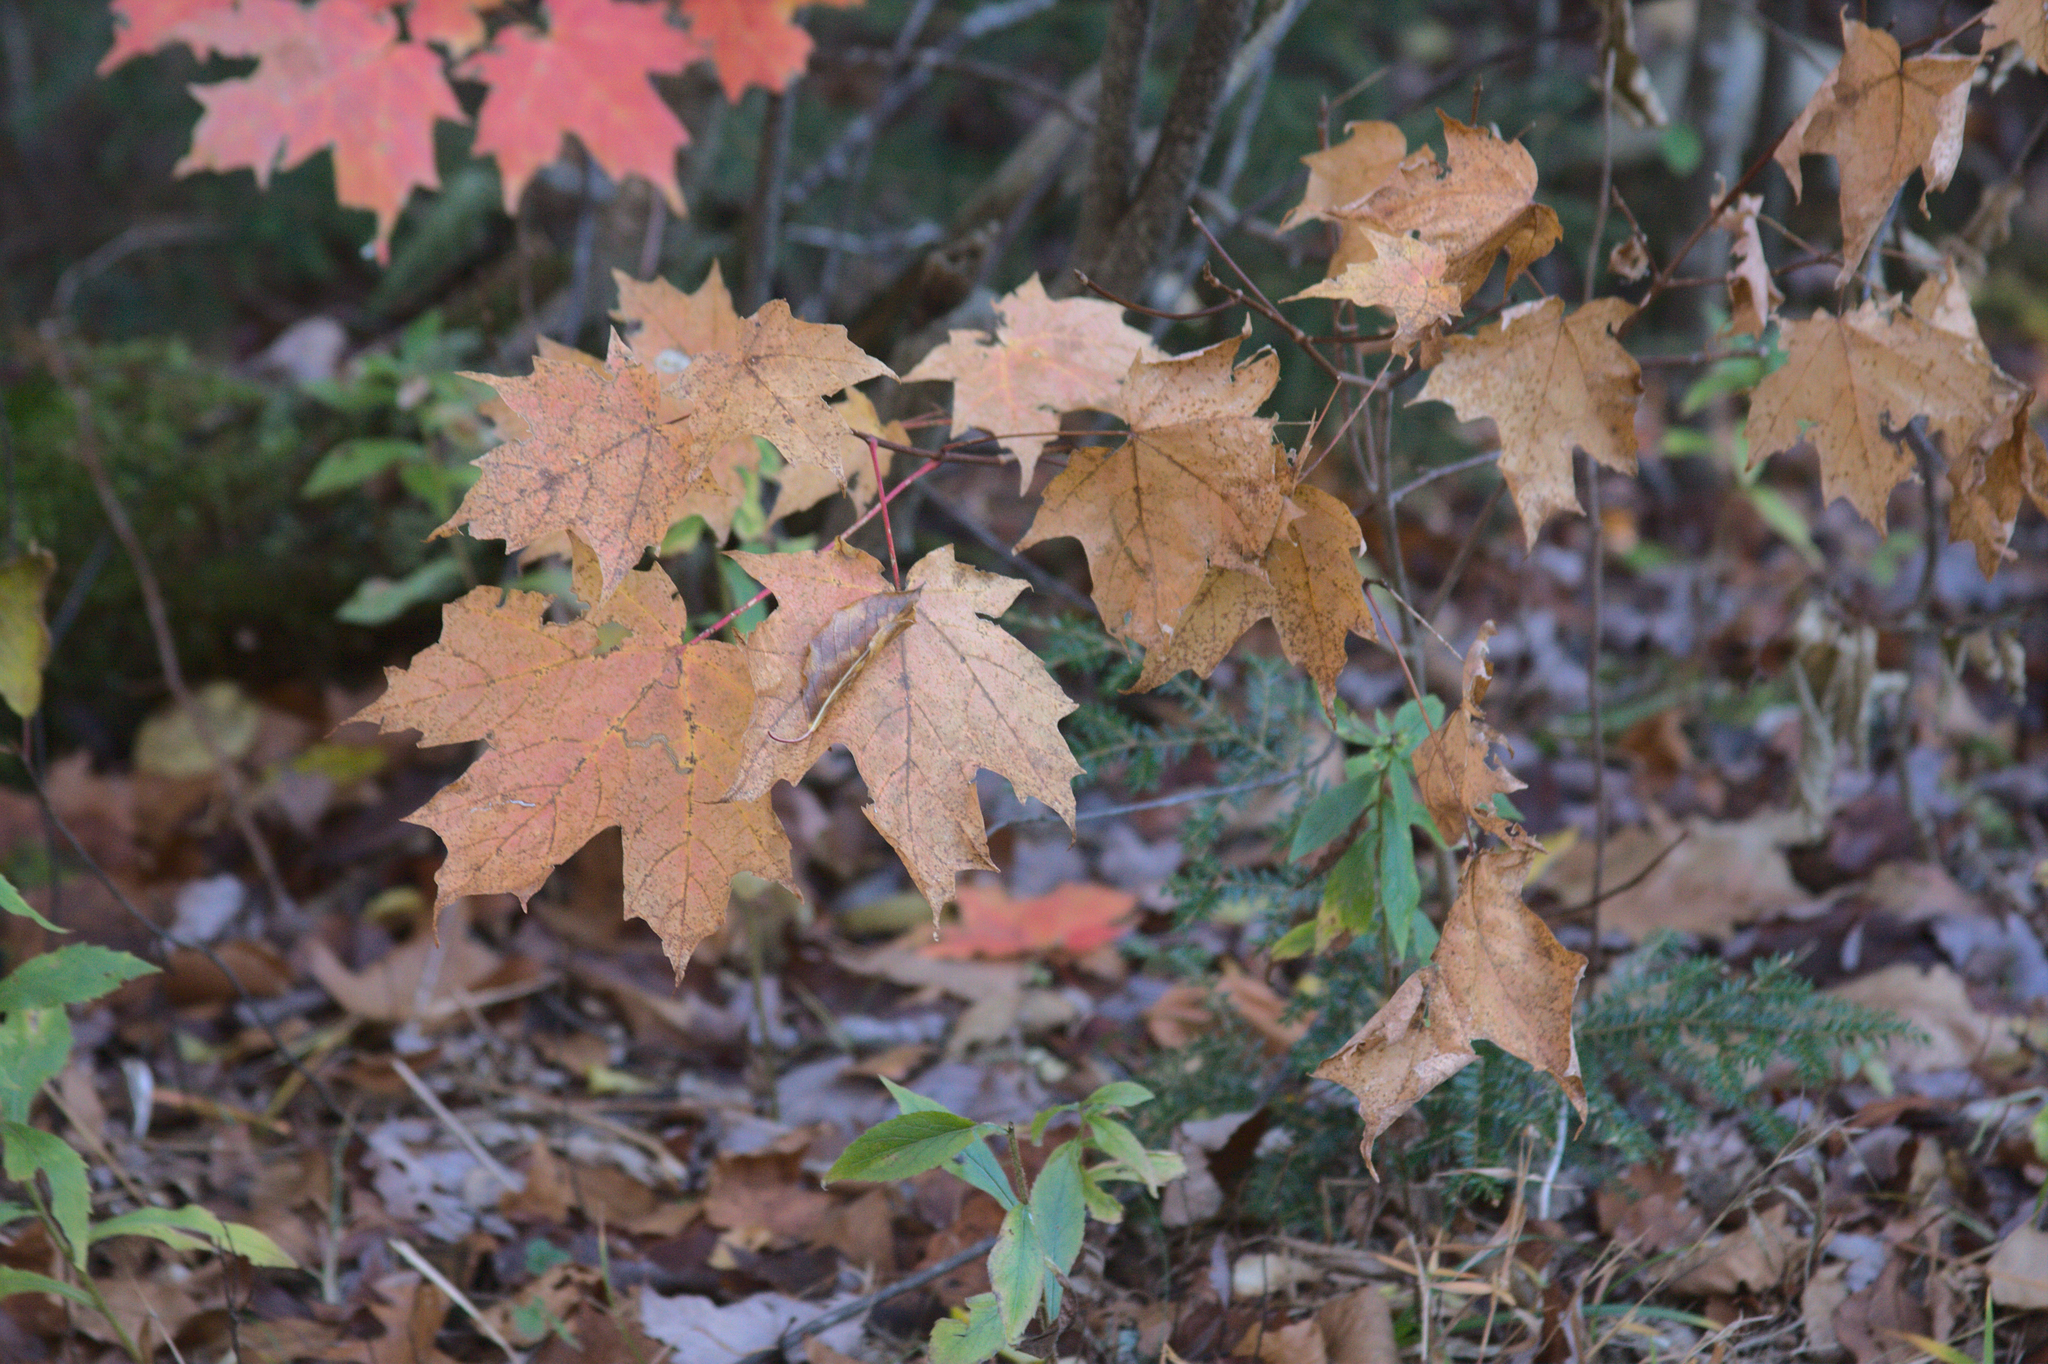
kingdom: Plantae
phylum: Tracheophyta
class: Magnoliopsida
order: Sapindales
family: Sapindaceae
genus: Acer
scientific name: Acer saccharum
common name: Sugar maple
